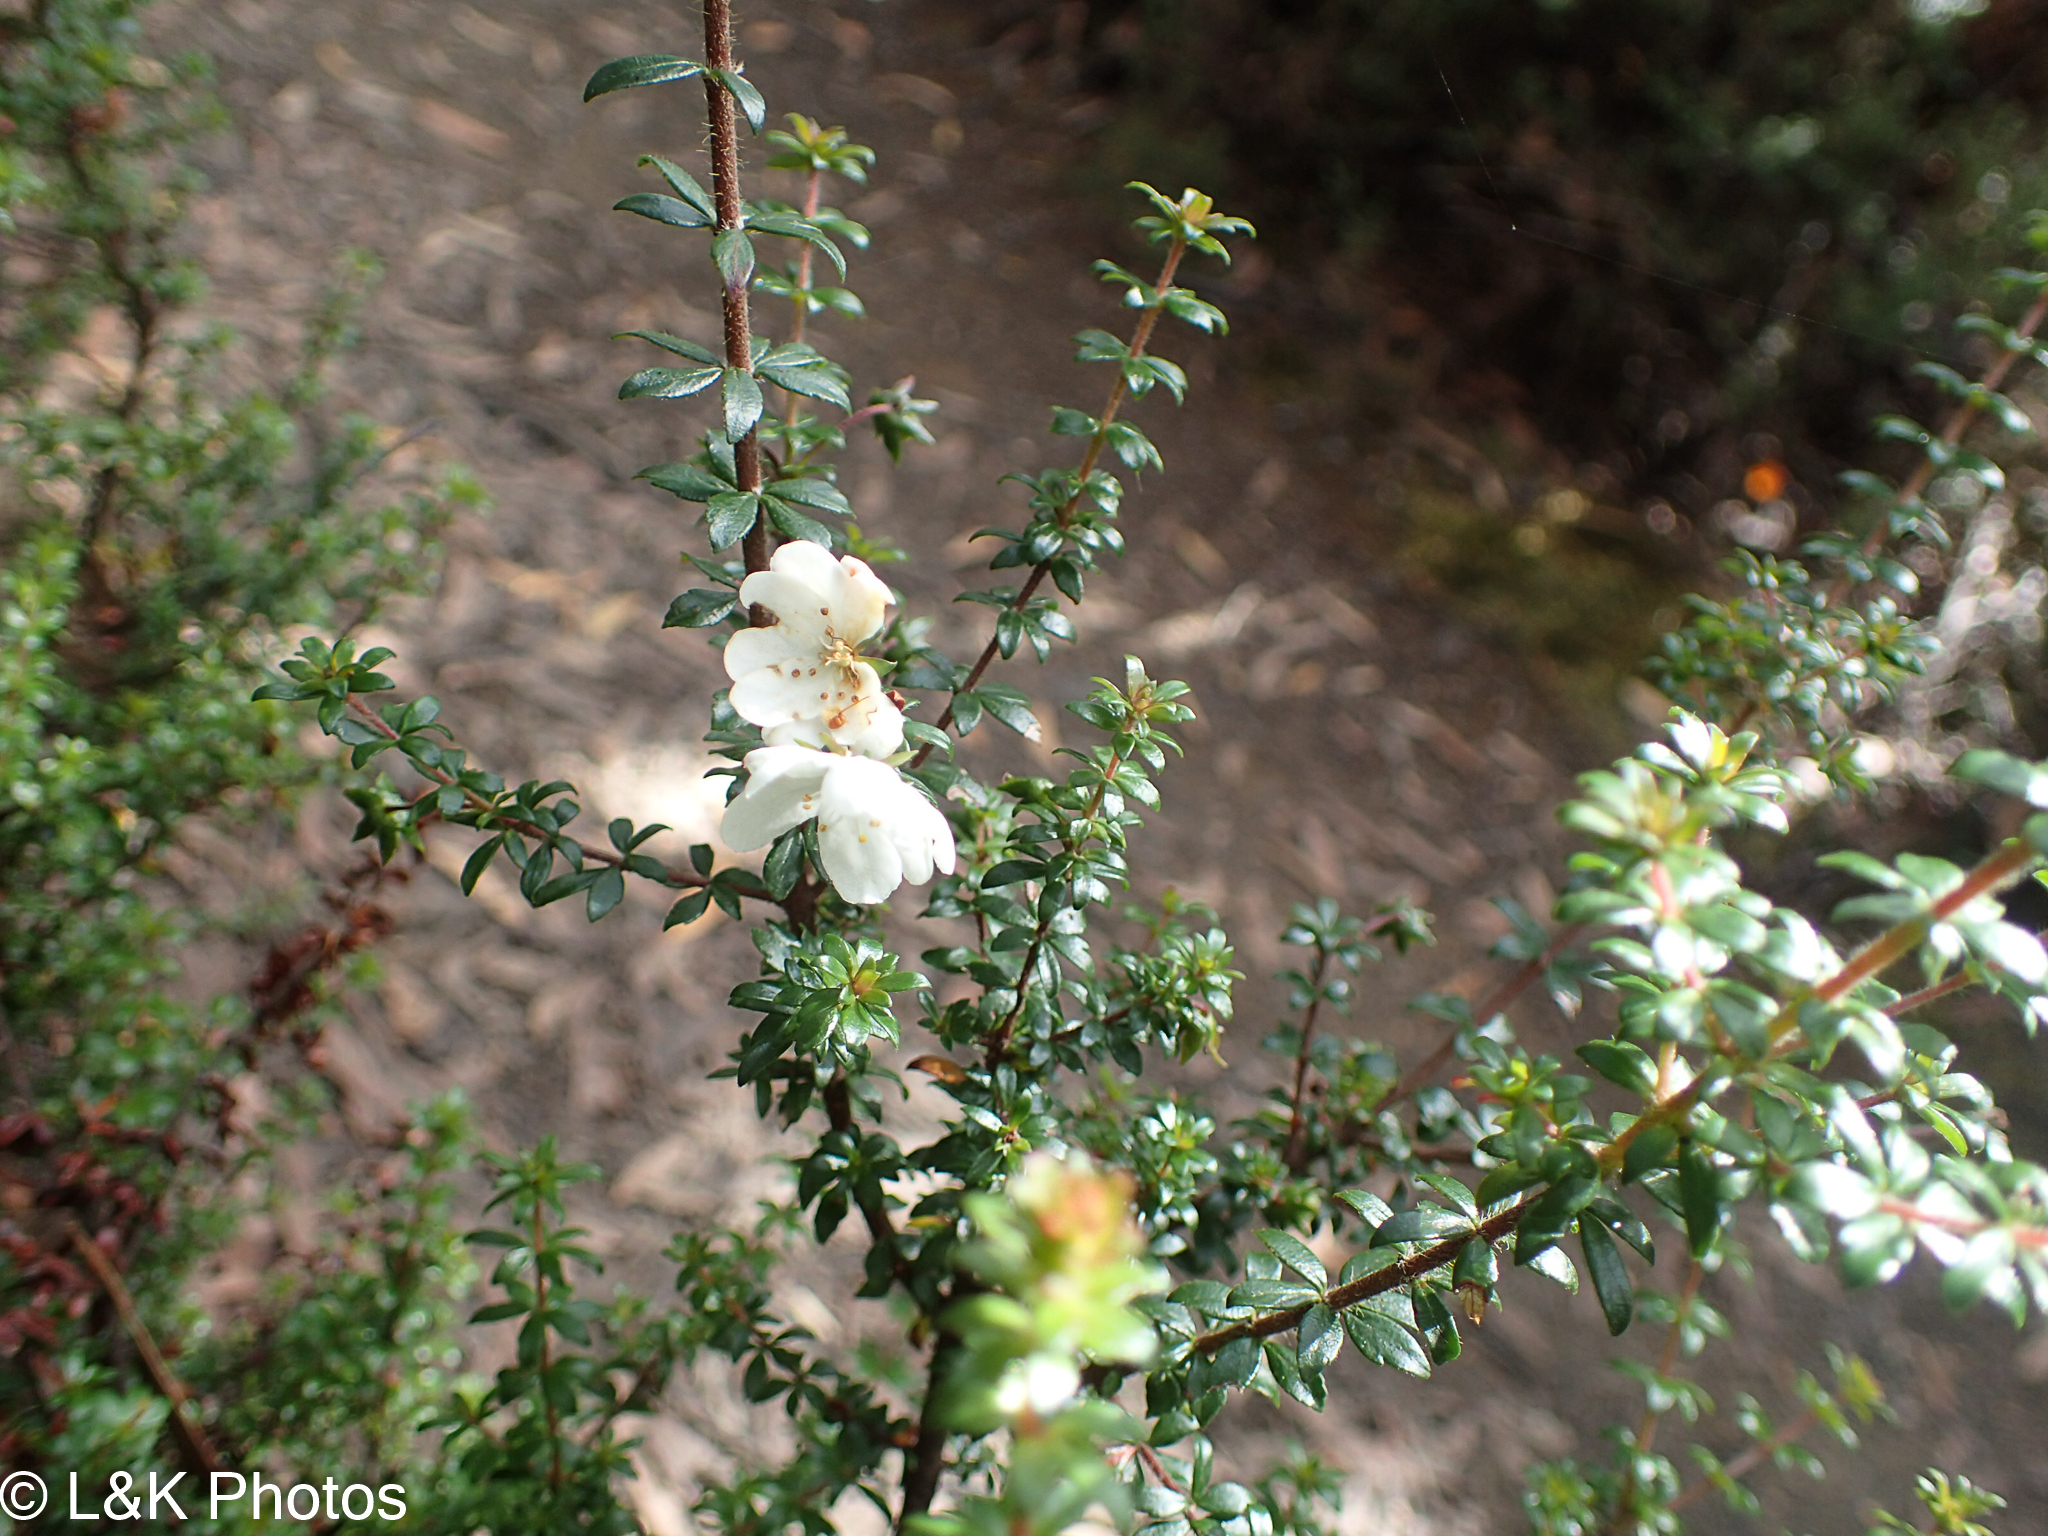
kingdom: Plantae
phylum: Tracheophyta
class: Magnoliopsida
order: Oxalidales
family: Cunoniaceae
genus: Bauera
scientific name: Bauera rubioides
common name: River-rose
